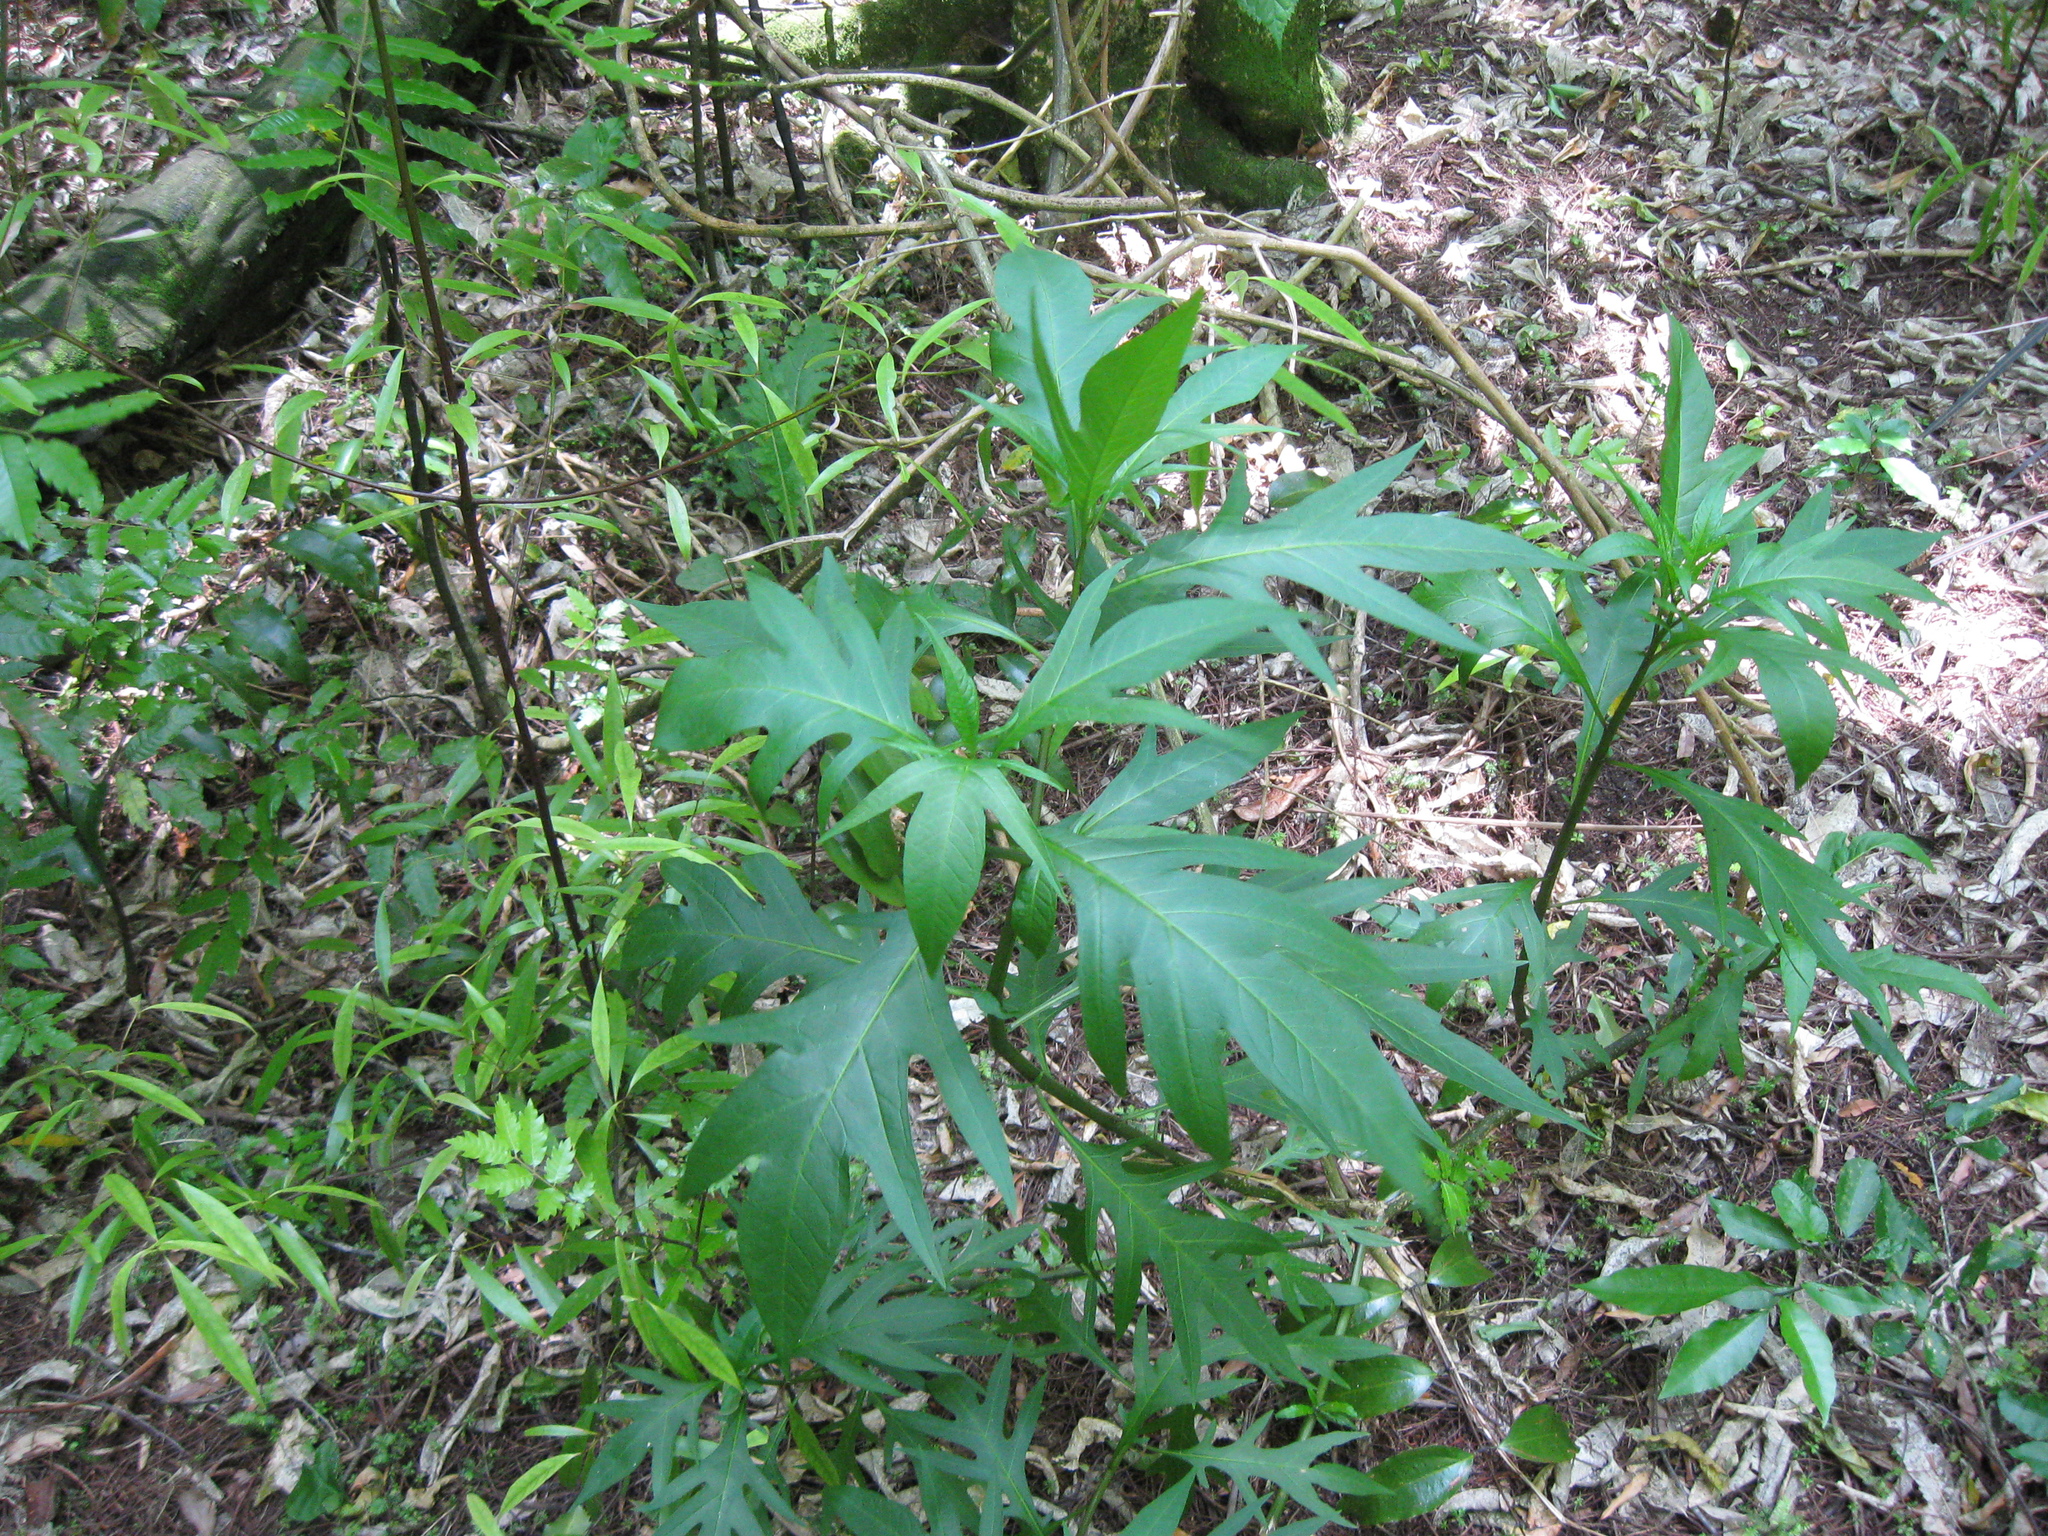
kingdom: Plantae
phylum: Tracheophyta
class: Magnoliopsida
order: Solanales
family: Solanaceae
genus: Solanum
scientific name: Solanum
